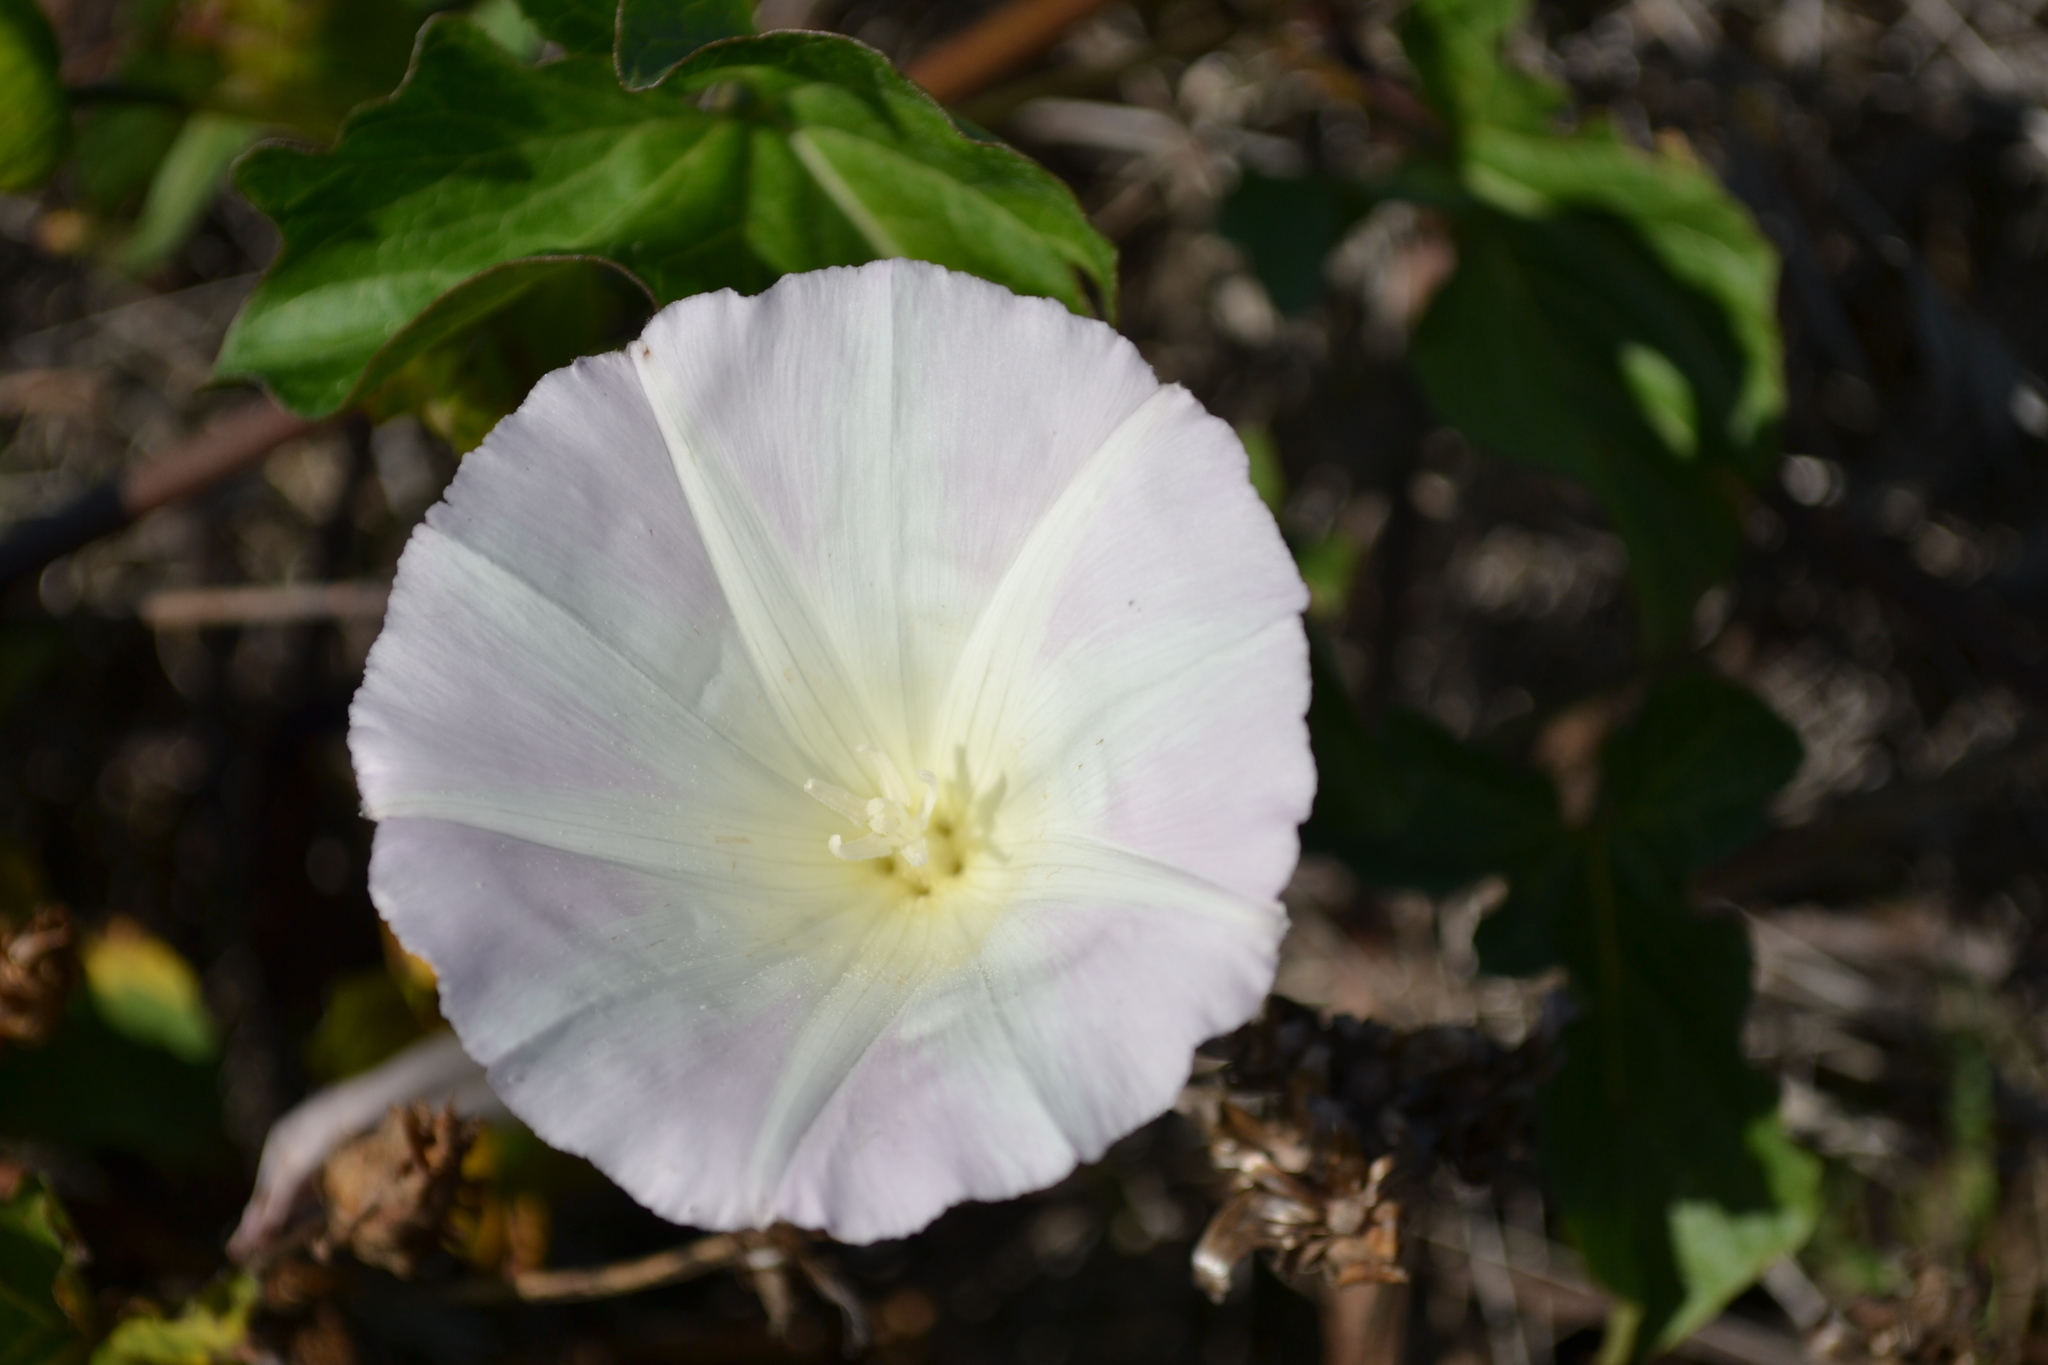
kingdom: Plantae
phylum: Tracheophyta
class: Magnoliopsida
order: Solanales
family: Convolvulaceae
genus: Calystegia
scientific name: Calystegia macrostegia
